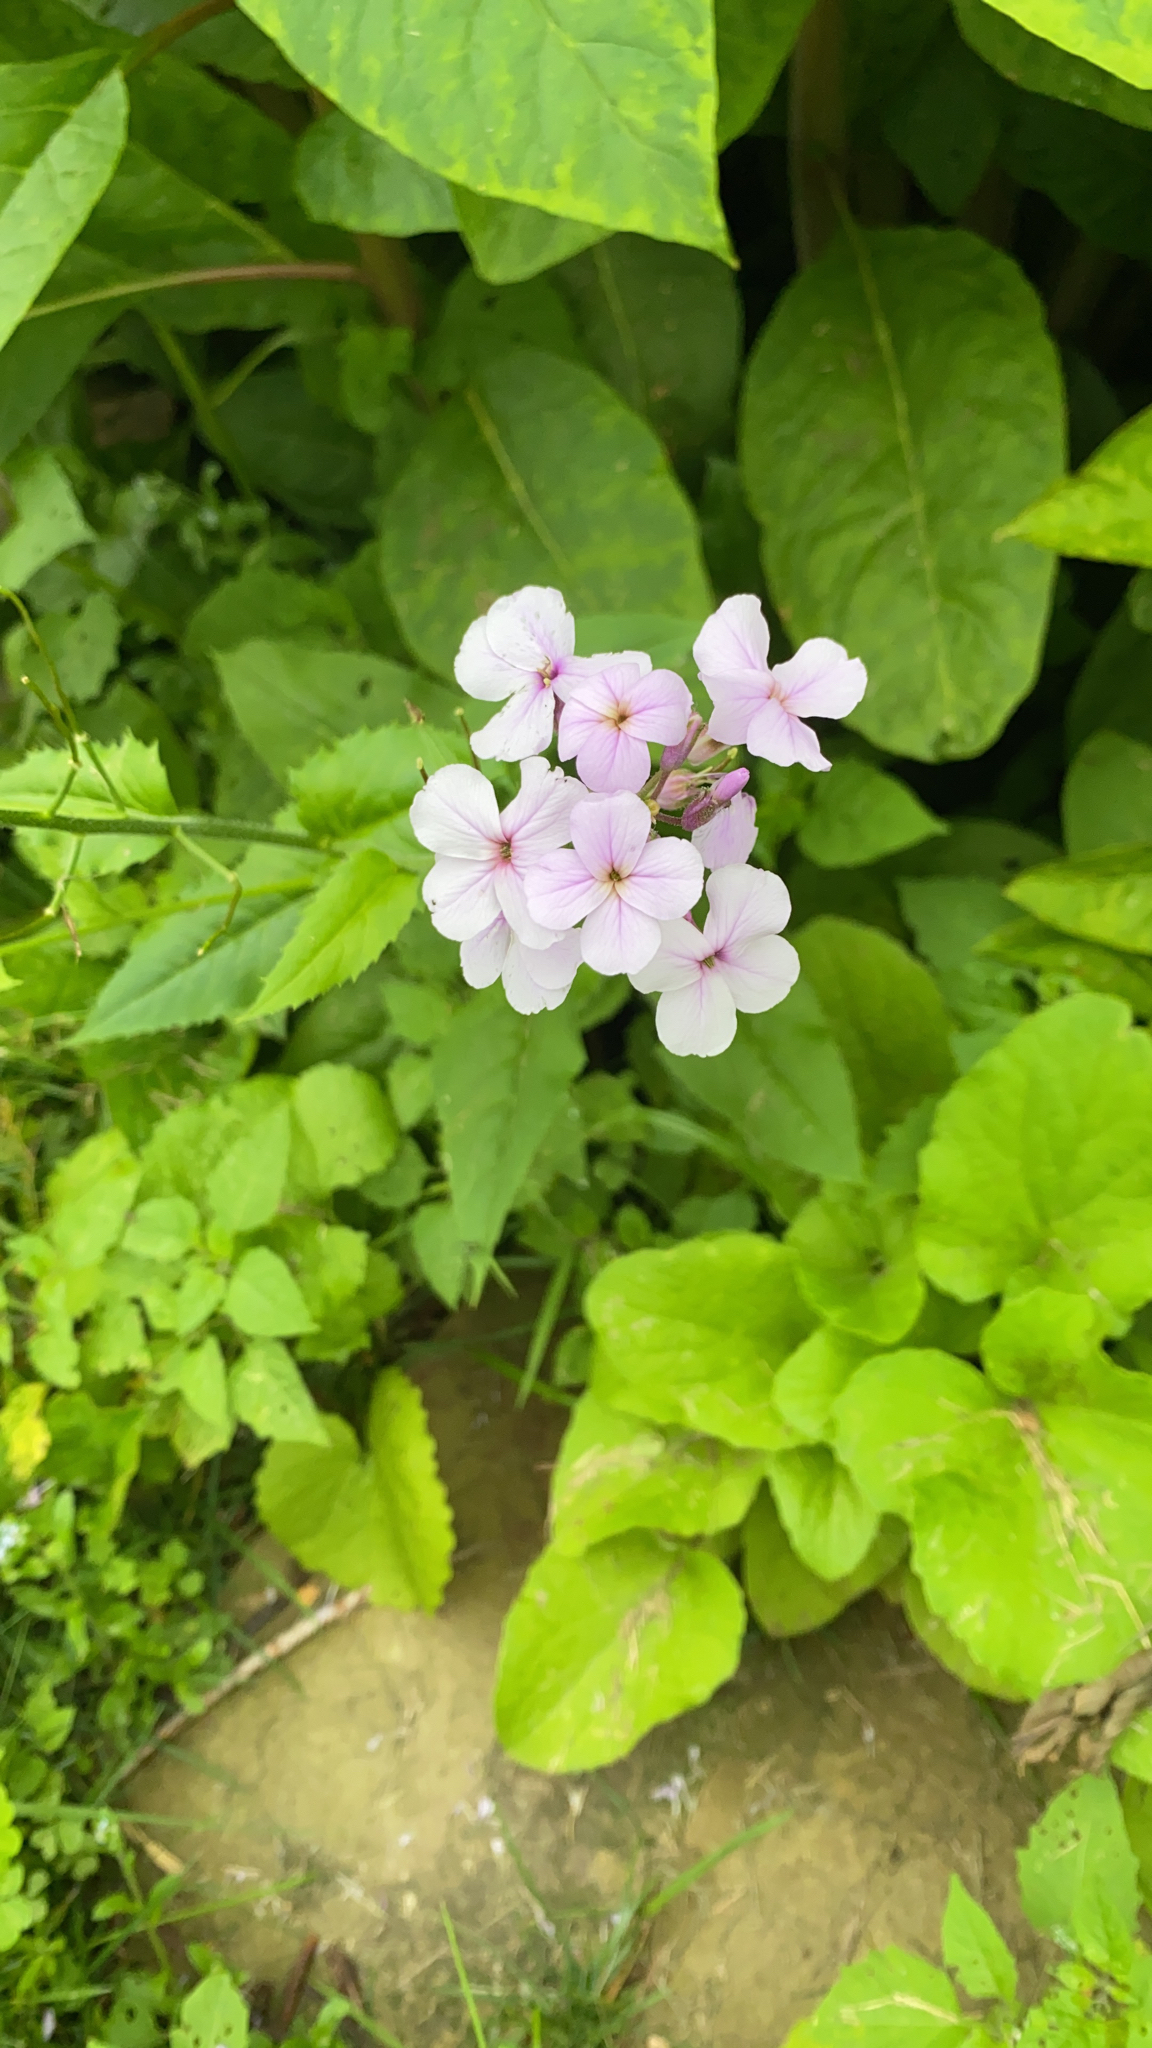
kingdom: Plantae
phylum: Tracheophyta
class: Magnoliopsida
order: Brassicales
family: Brassicaceae
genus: Hesperis
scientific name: Hesperis matronalis
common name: Dame's-violet
